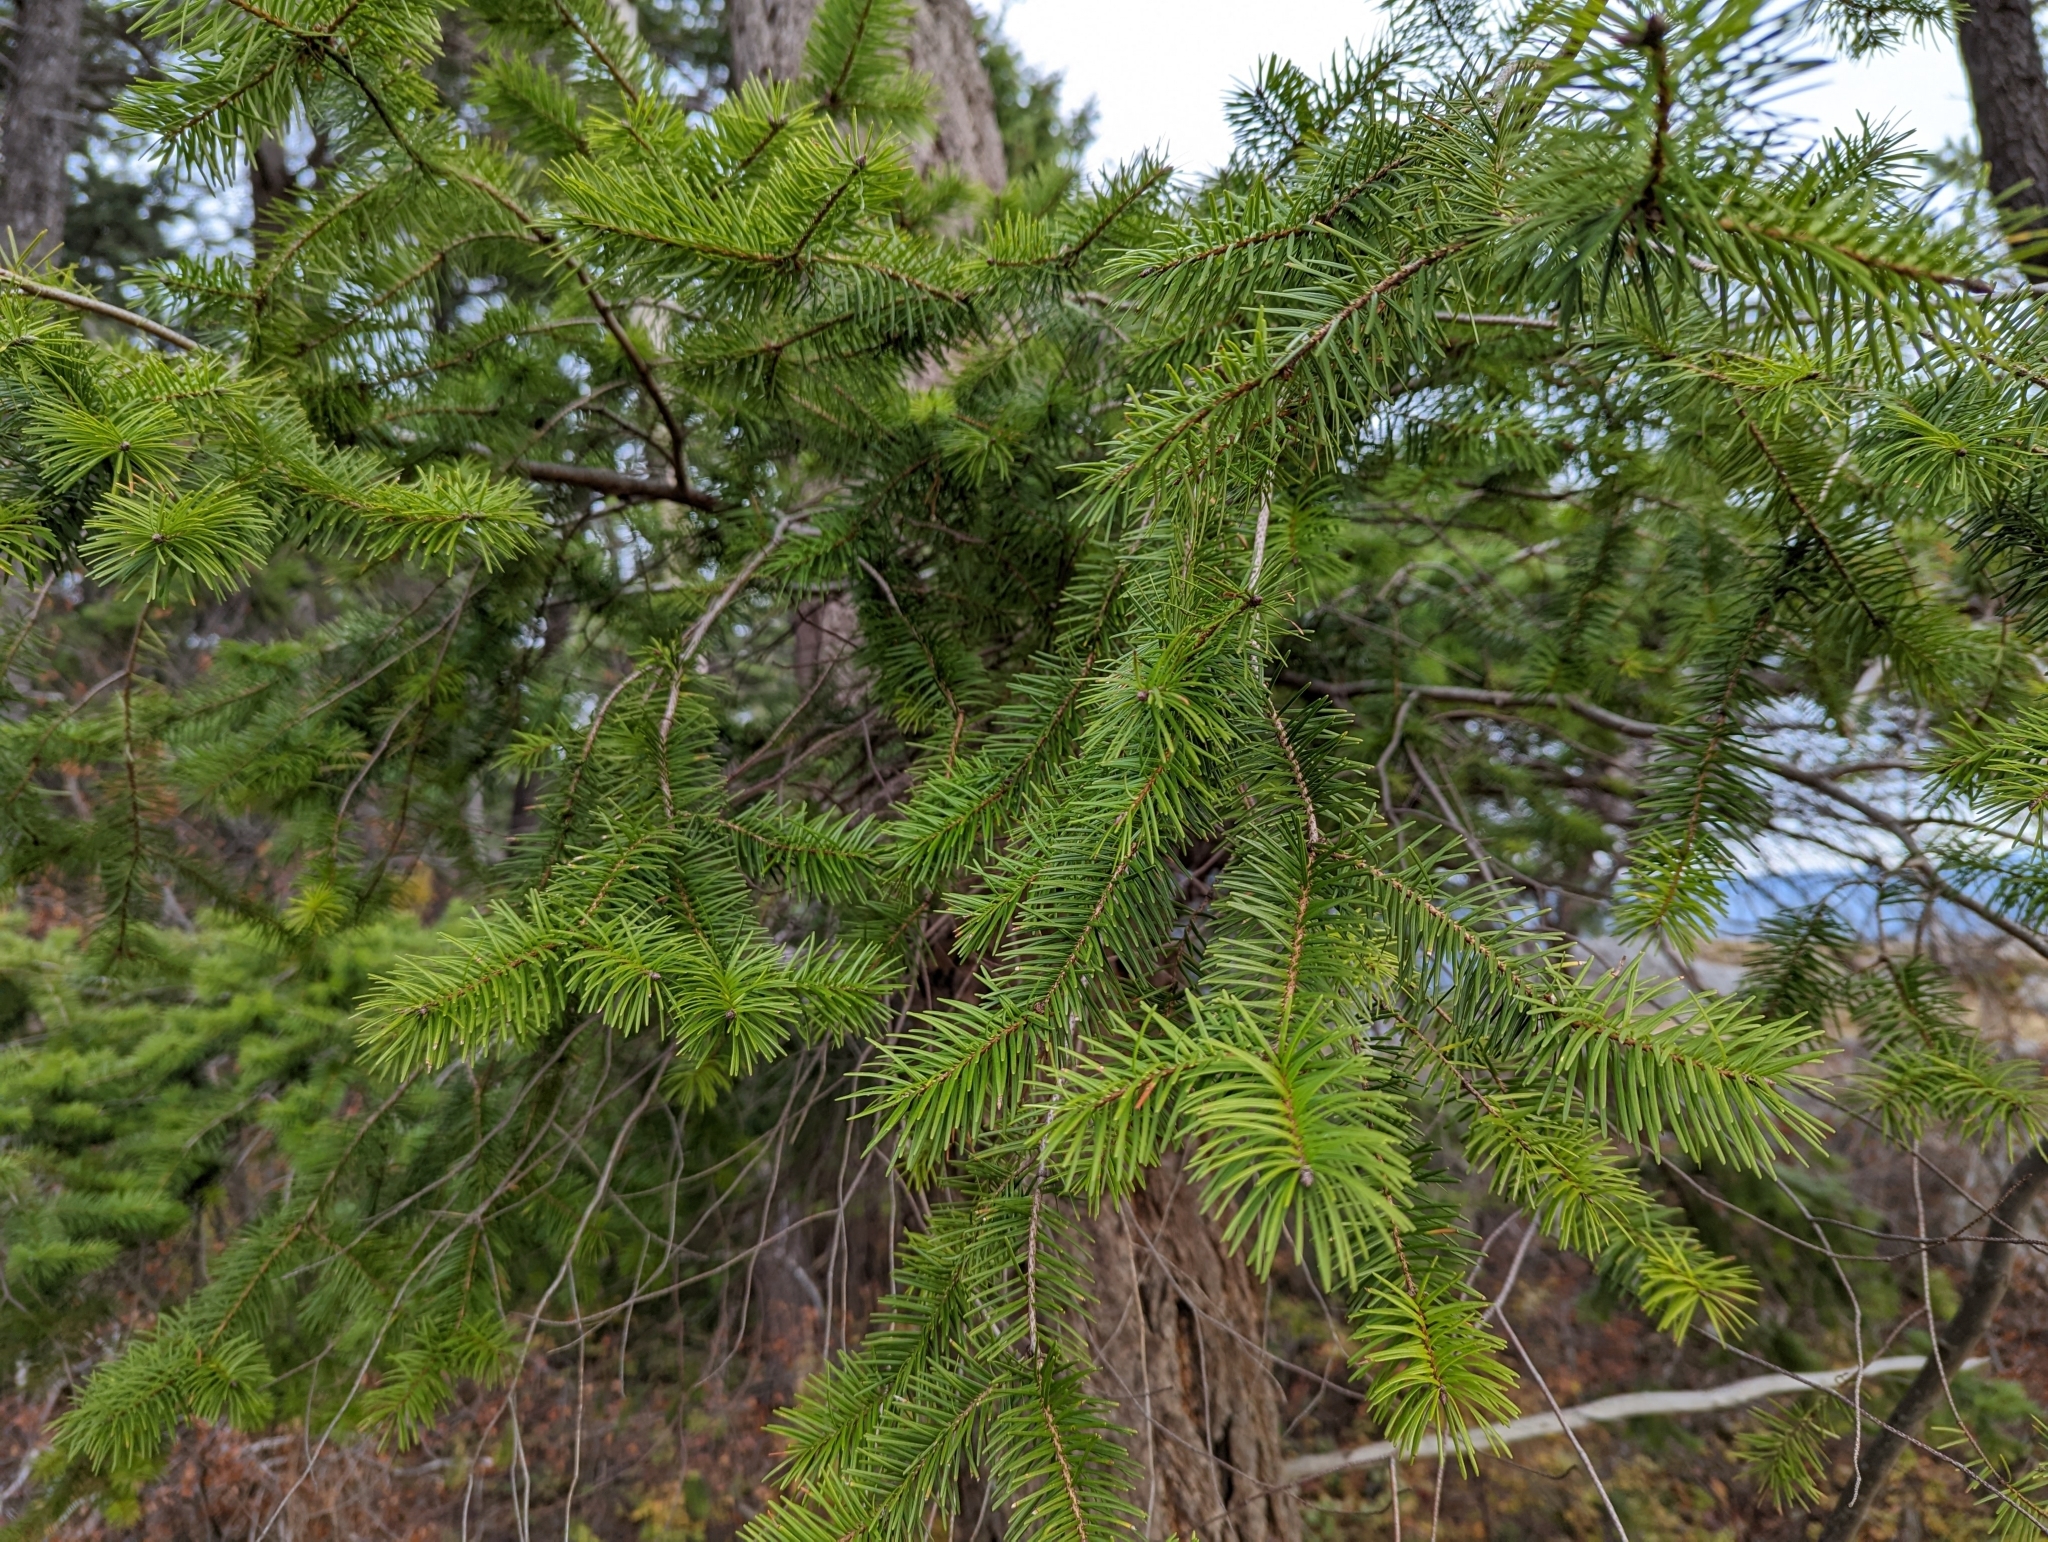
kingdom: Plantae
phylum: Tracheophyta
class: Pinopsida
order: Pinales
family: Pinaceae
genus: Pseudotsuga
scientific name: Pseudotsuga menziesii
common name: Douglas fir
